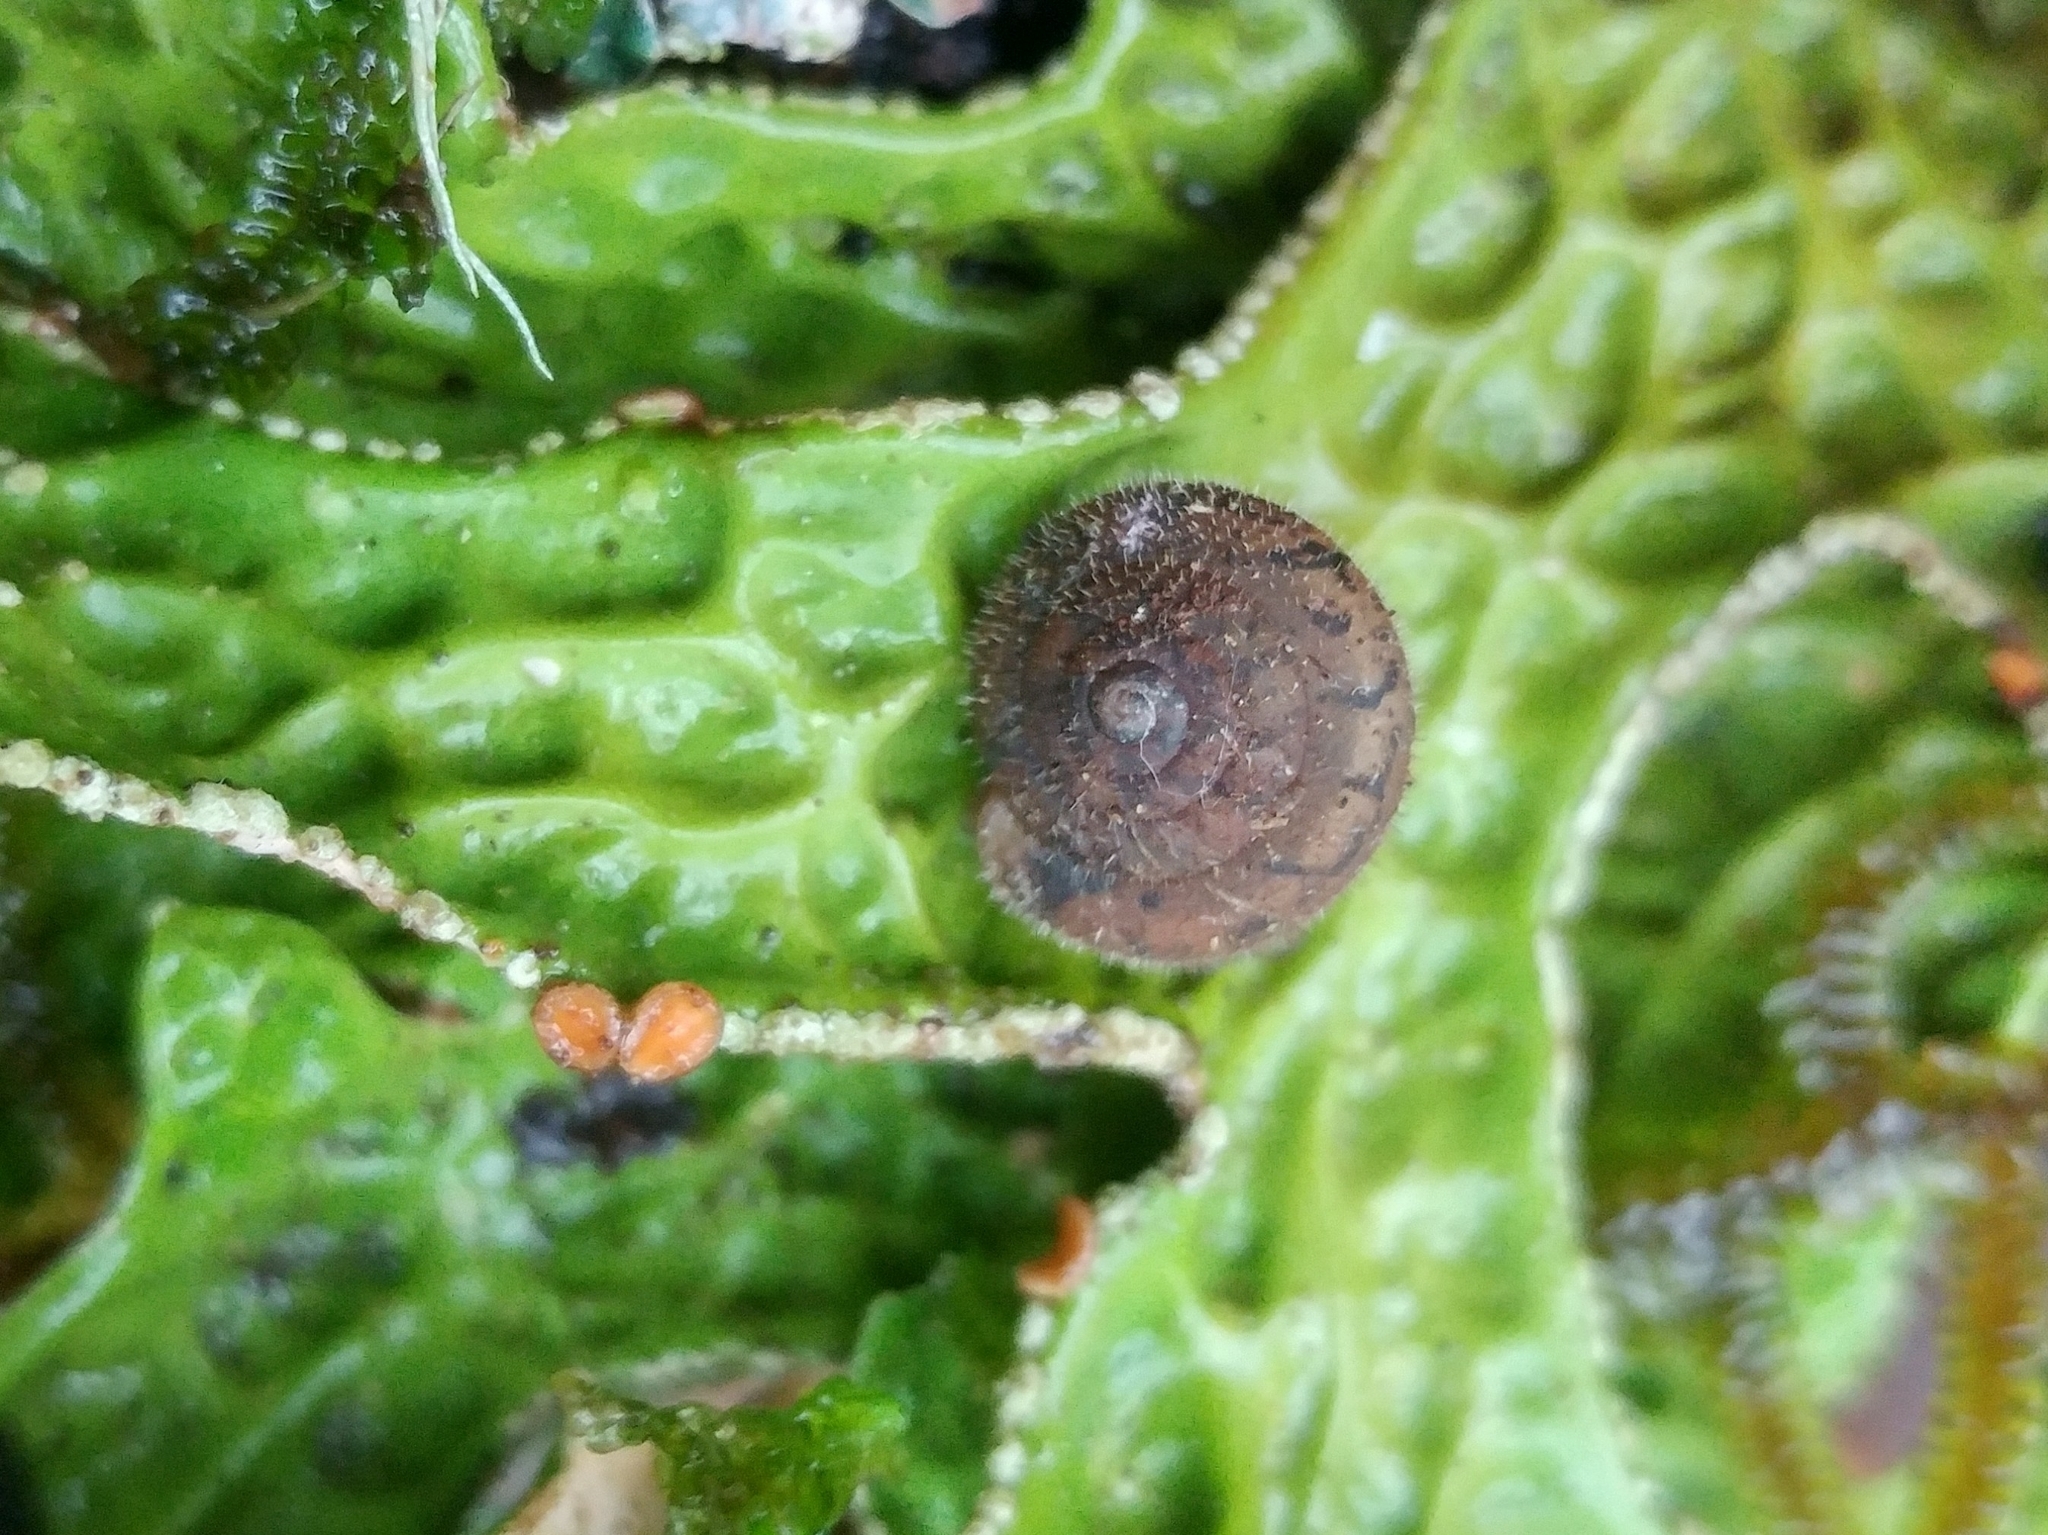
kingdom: Animalia
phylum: Mollusca
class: Gastropoda
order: Stylommatophora
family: Polygyridae
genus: Vespericola
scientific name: Vespericola columbianus
